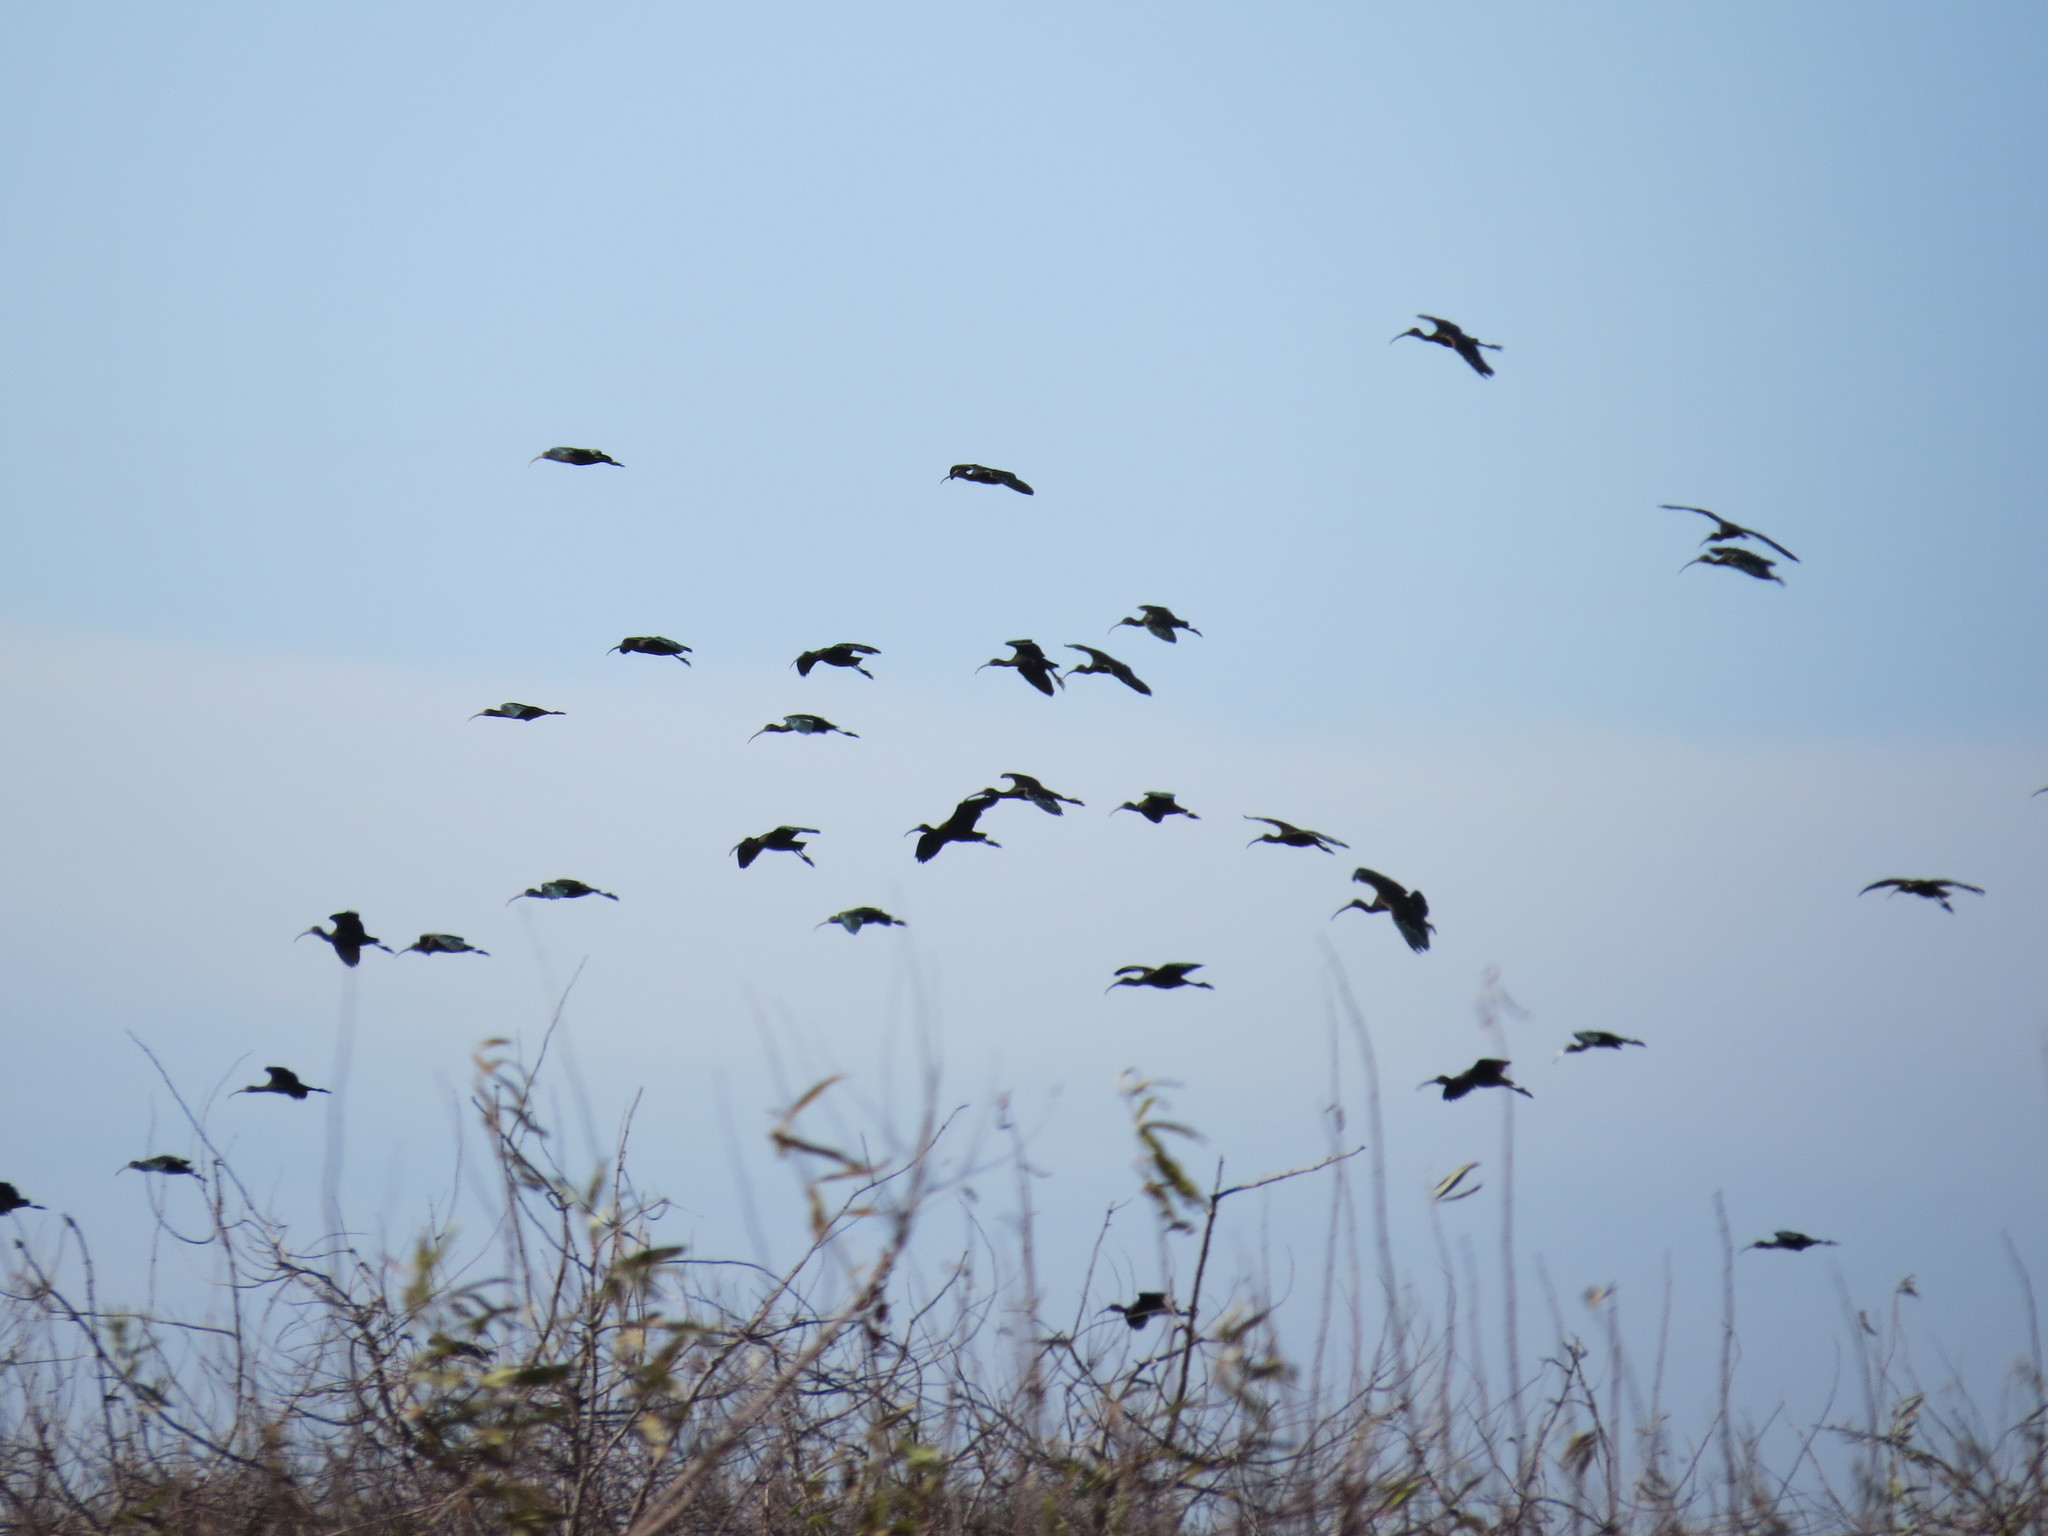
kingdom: Animalia
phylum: Chordata
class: Aves
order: Pelecaniformes
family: Threskiornithidae
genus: Plegadis
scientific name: Plegadis chihi
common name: White-faced ibis
